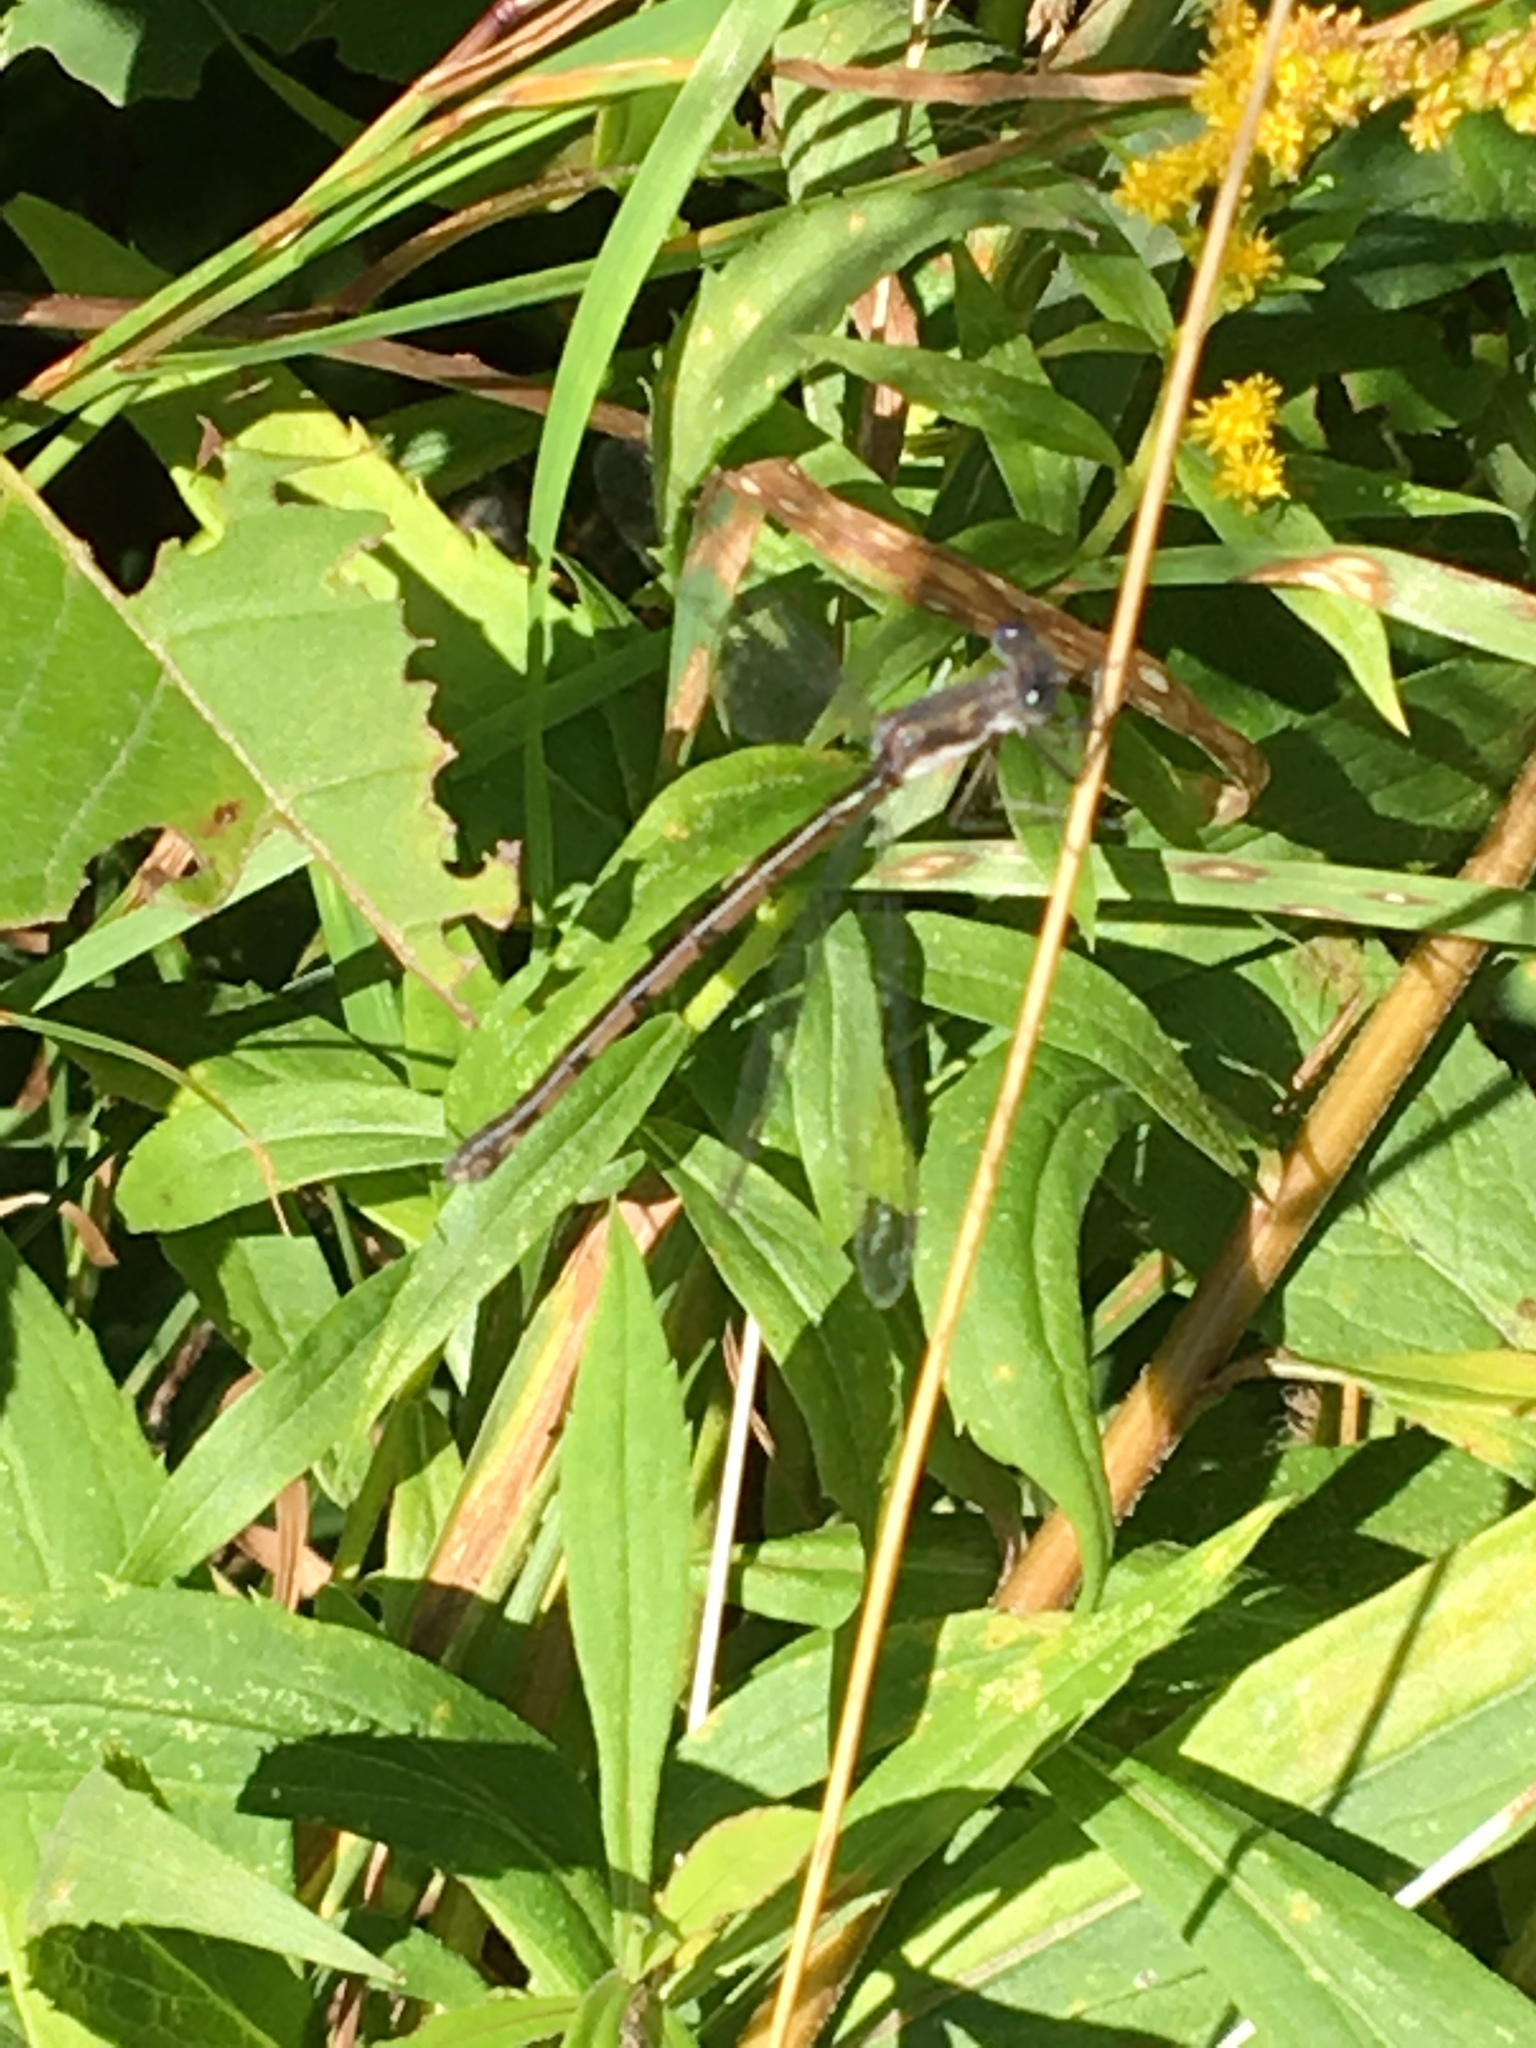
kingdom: Animalia
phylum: Arthropoda
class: Insecta
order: Odonata
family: Lestidae
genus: Lestes
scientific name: Lestes
